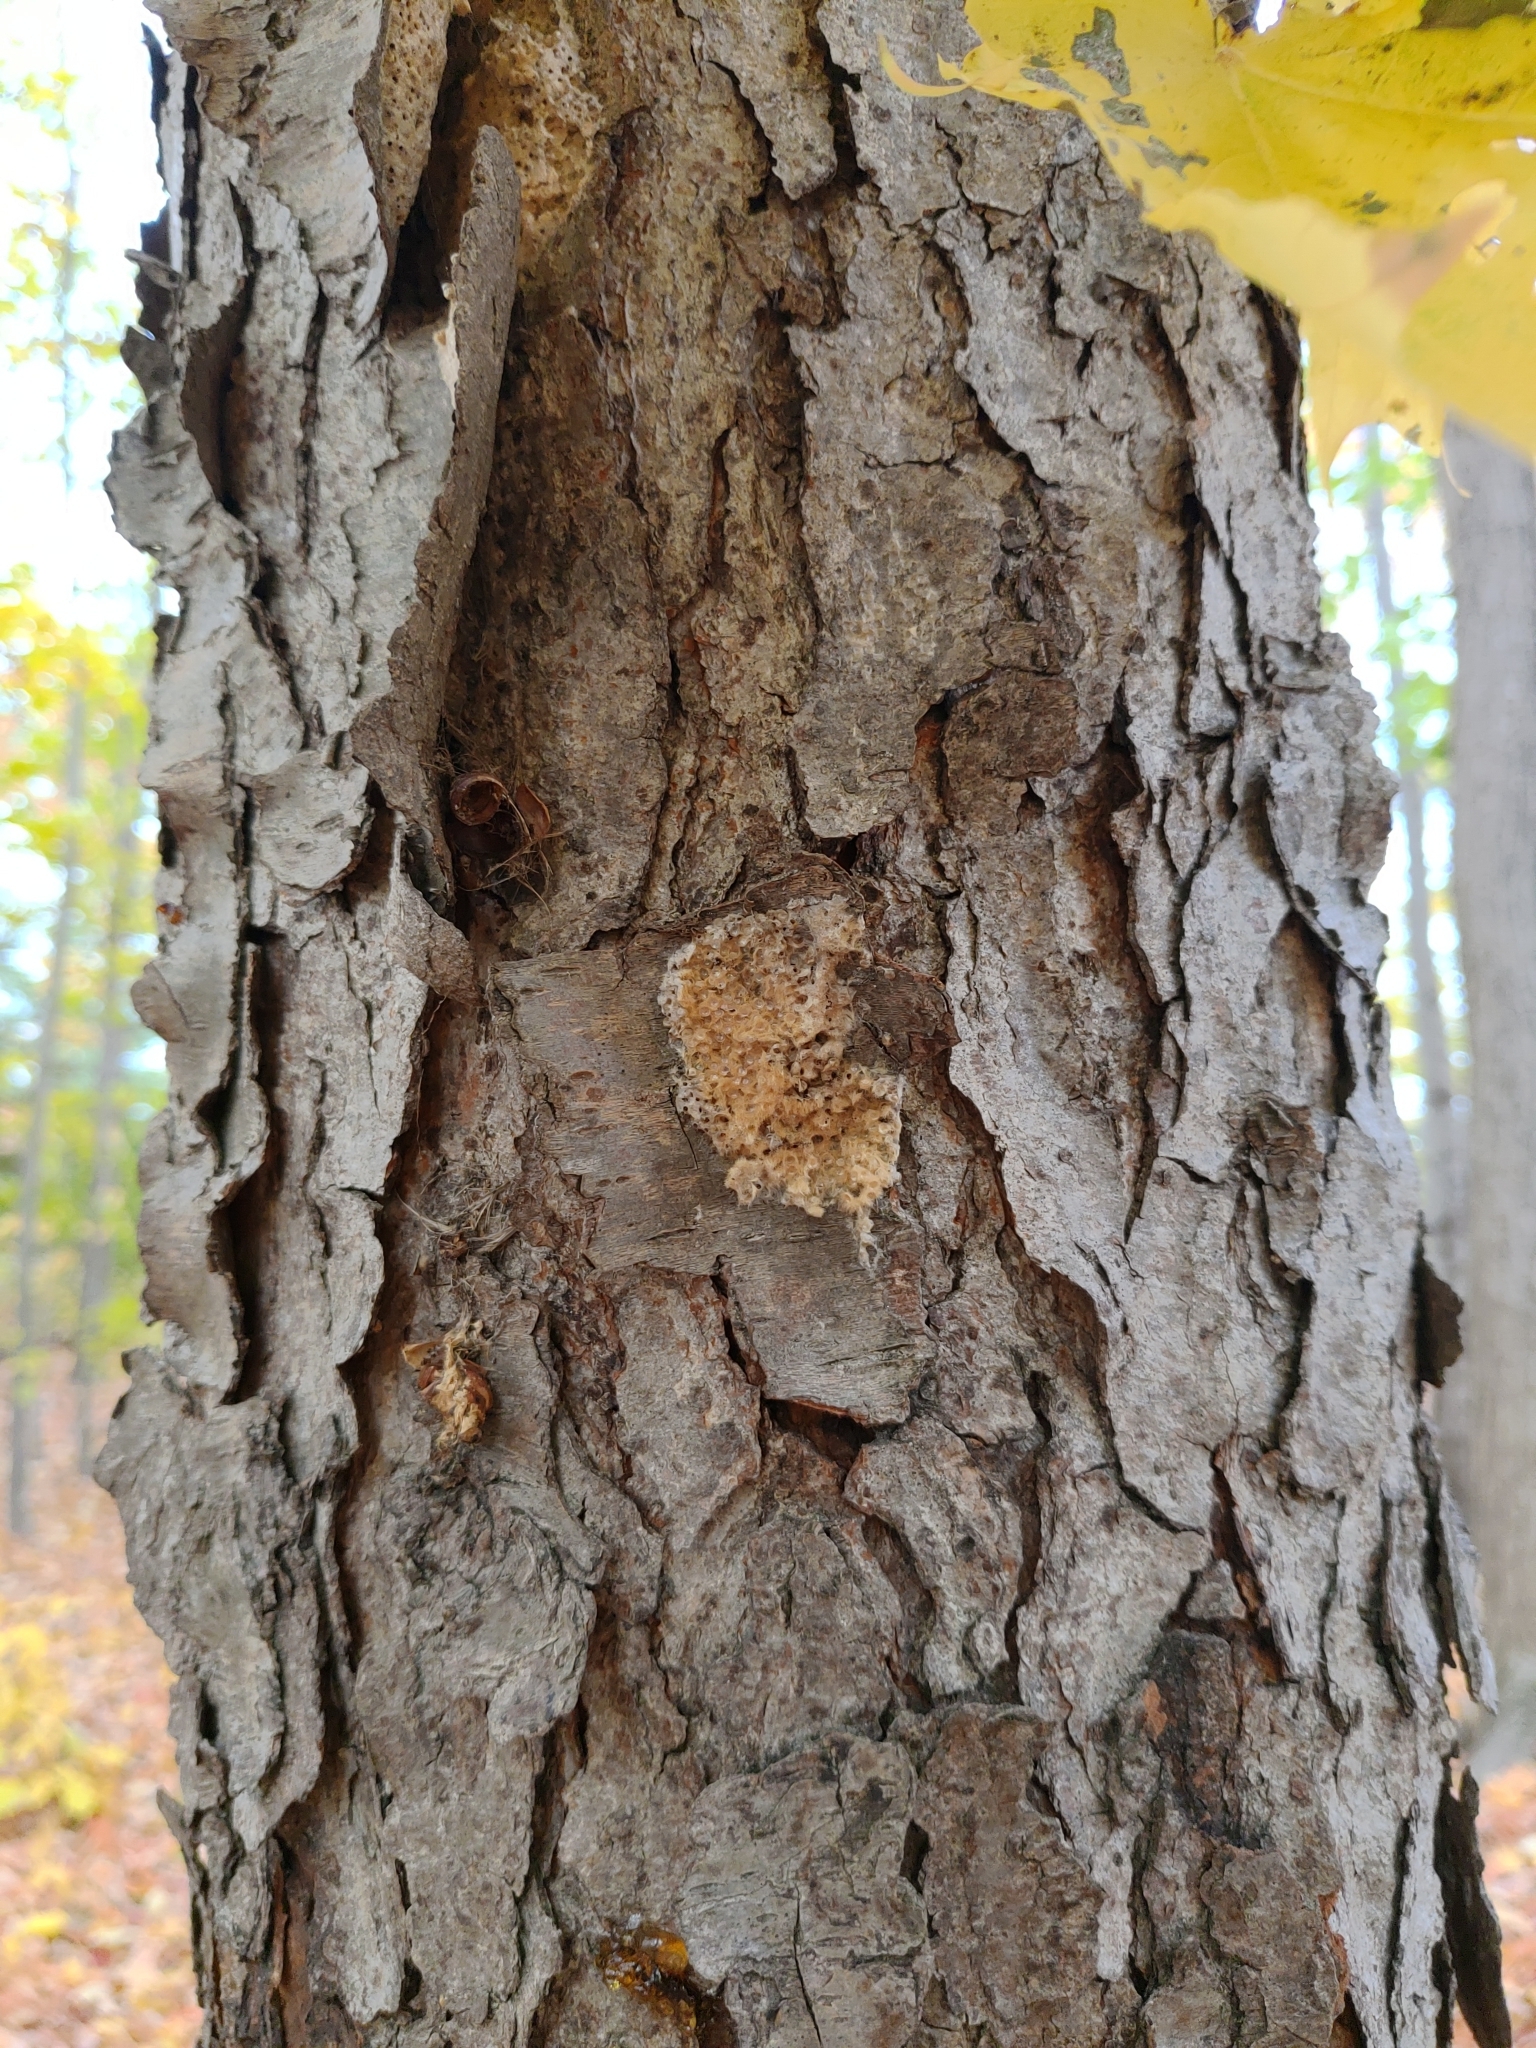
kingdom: Animalia
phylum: Arthropoda
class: Insecta
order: Lepidoptera
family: Erebidae
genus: Lymantria
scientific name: Lymantria dispar
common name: Gypsy moth
